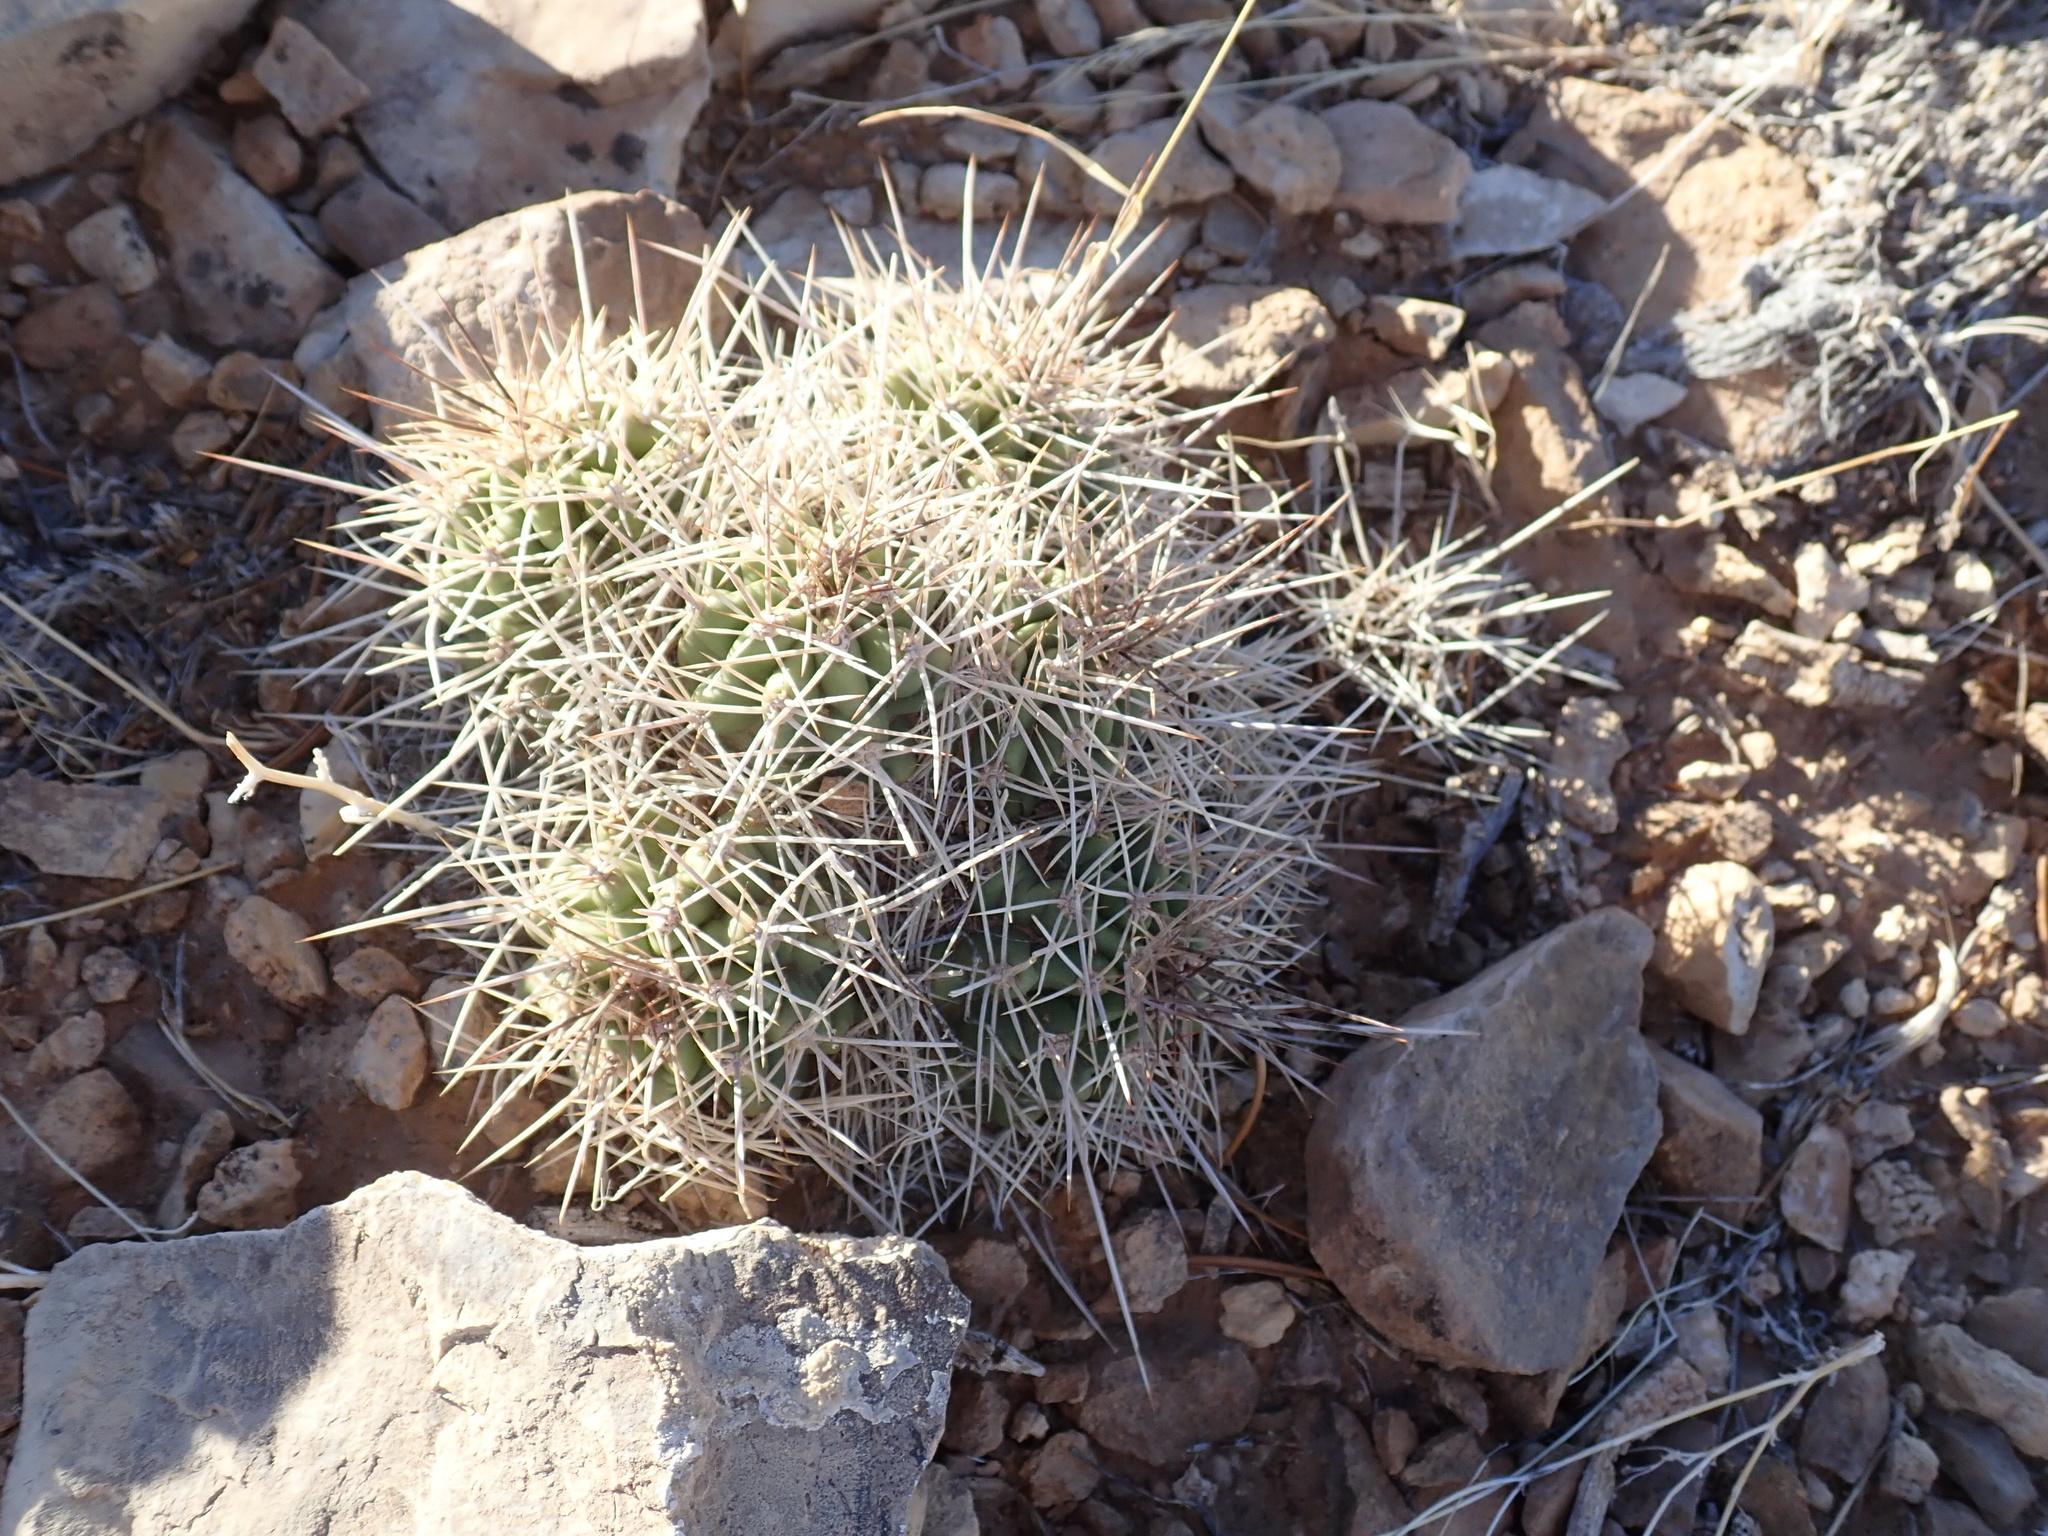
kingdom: Plantae
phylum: Tracheophyta
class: Magnoliopsida
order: Caryophyllales
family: Cactaceae
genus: Echinocereus
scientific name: Echinocereus triglochidiatus
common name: Claretcup hedgehog
